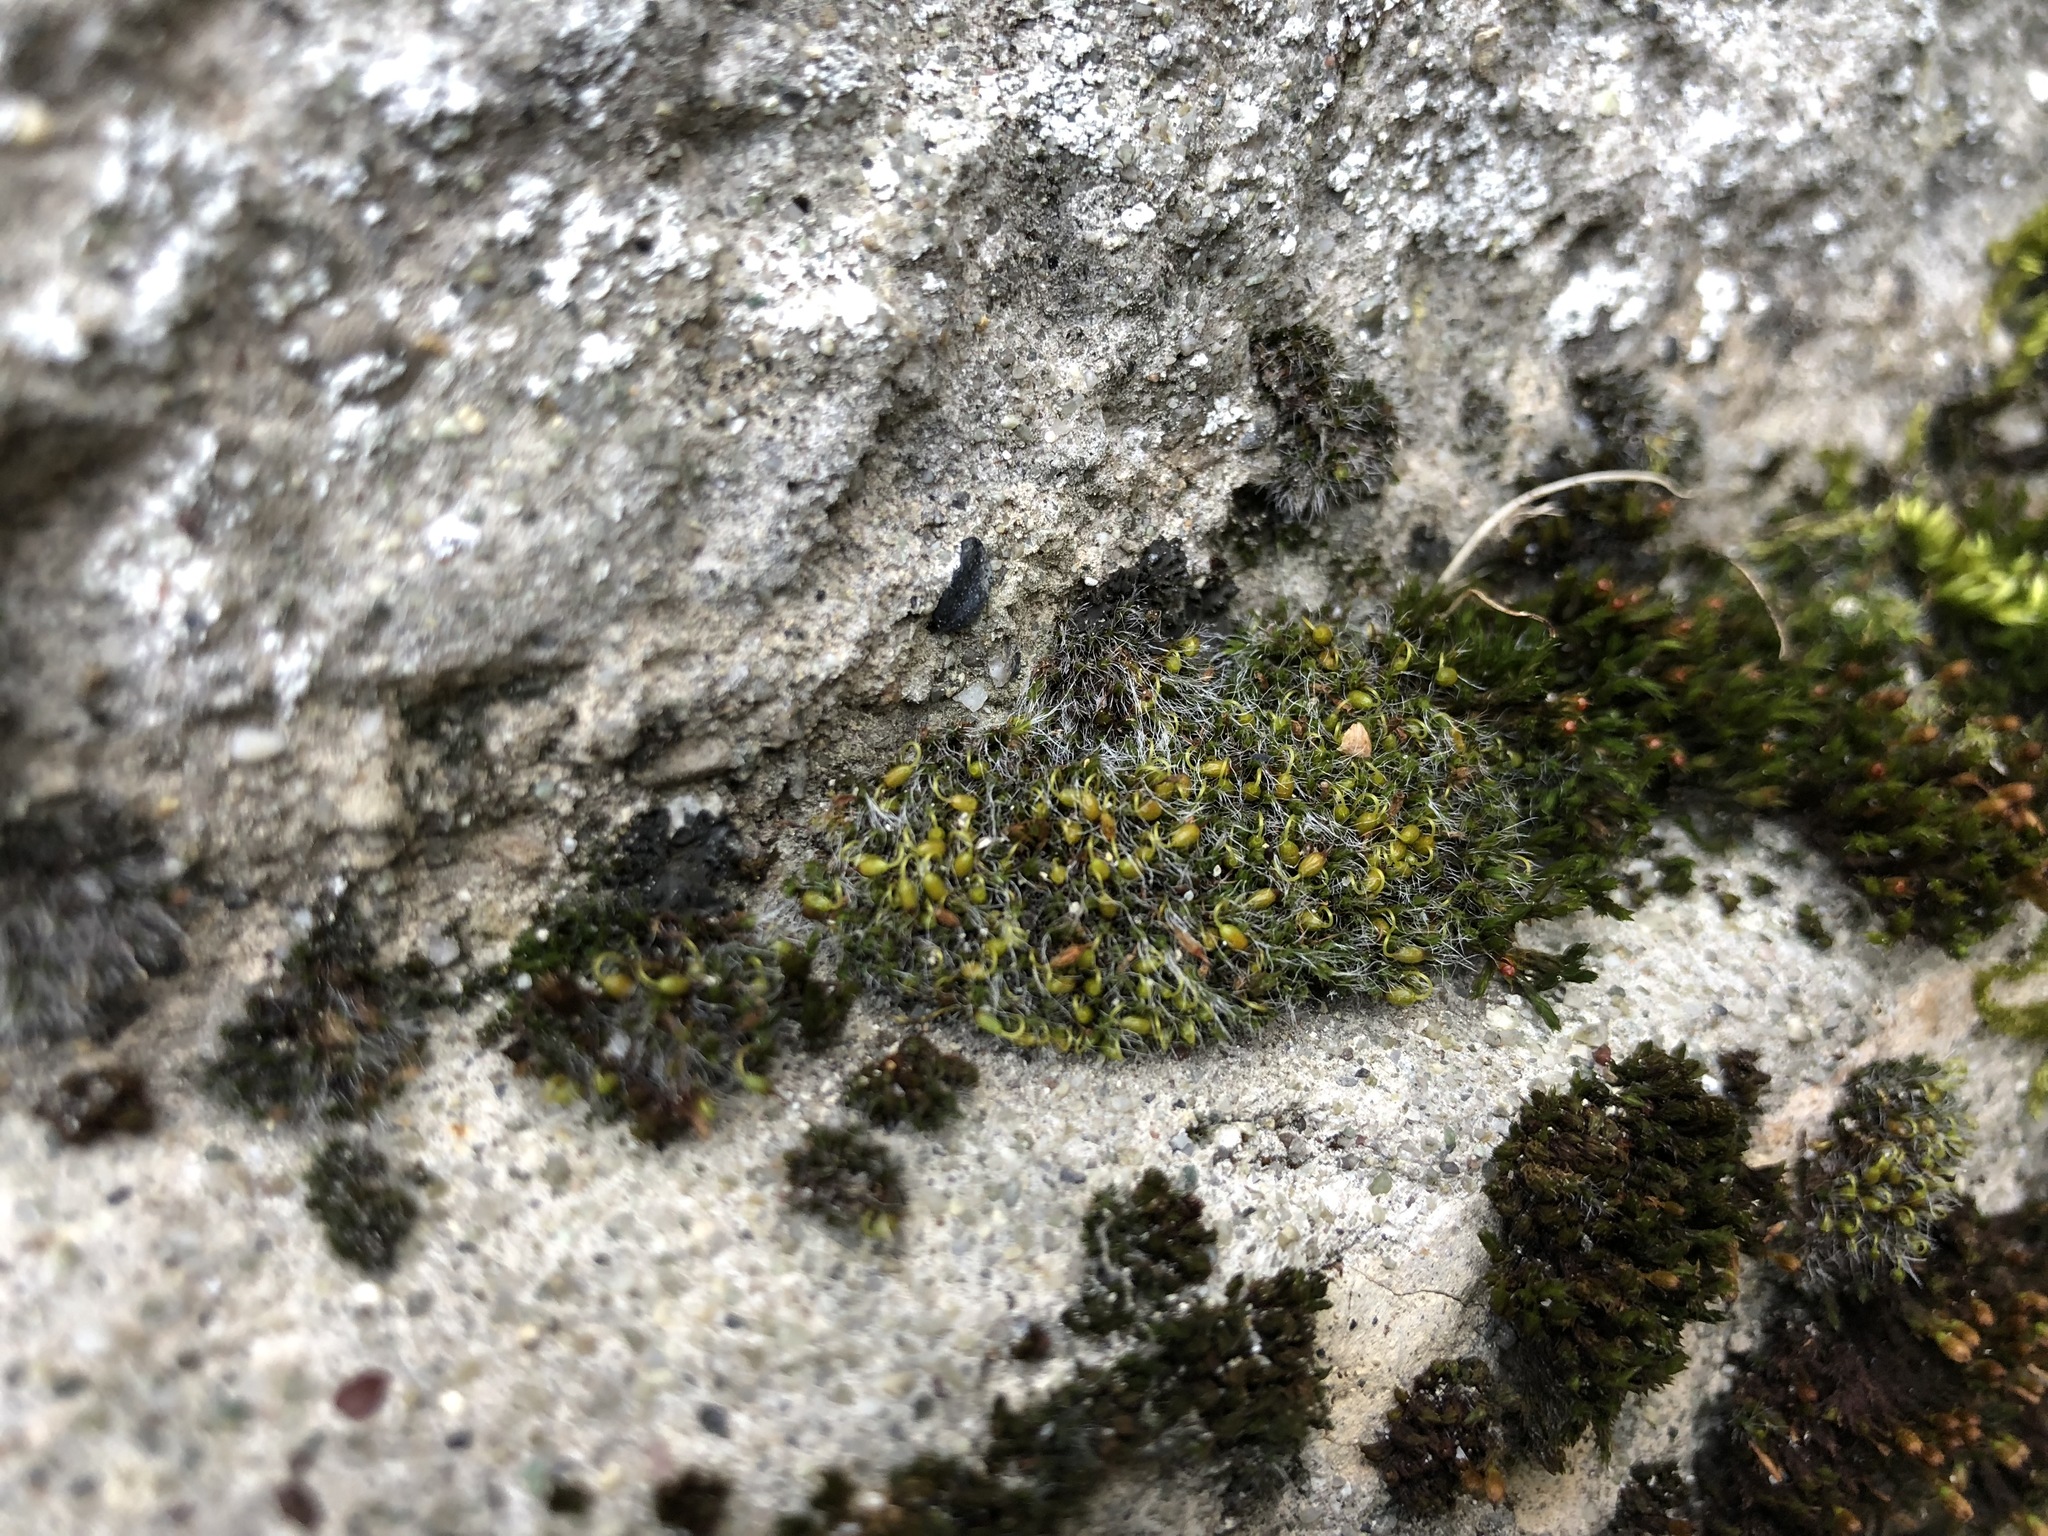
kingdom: Plantae
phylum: Bryophyta
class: Bryopsida
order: Grimmiales
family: Grimmiaceae
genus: Grimmia
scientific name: Grimmia pulvinata
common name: Grey-cushioned grimmia
